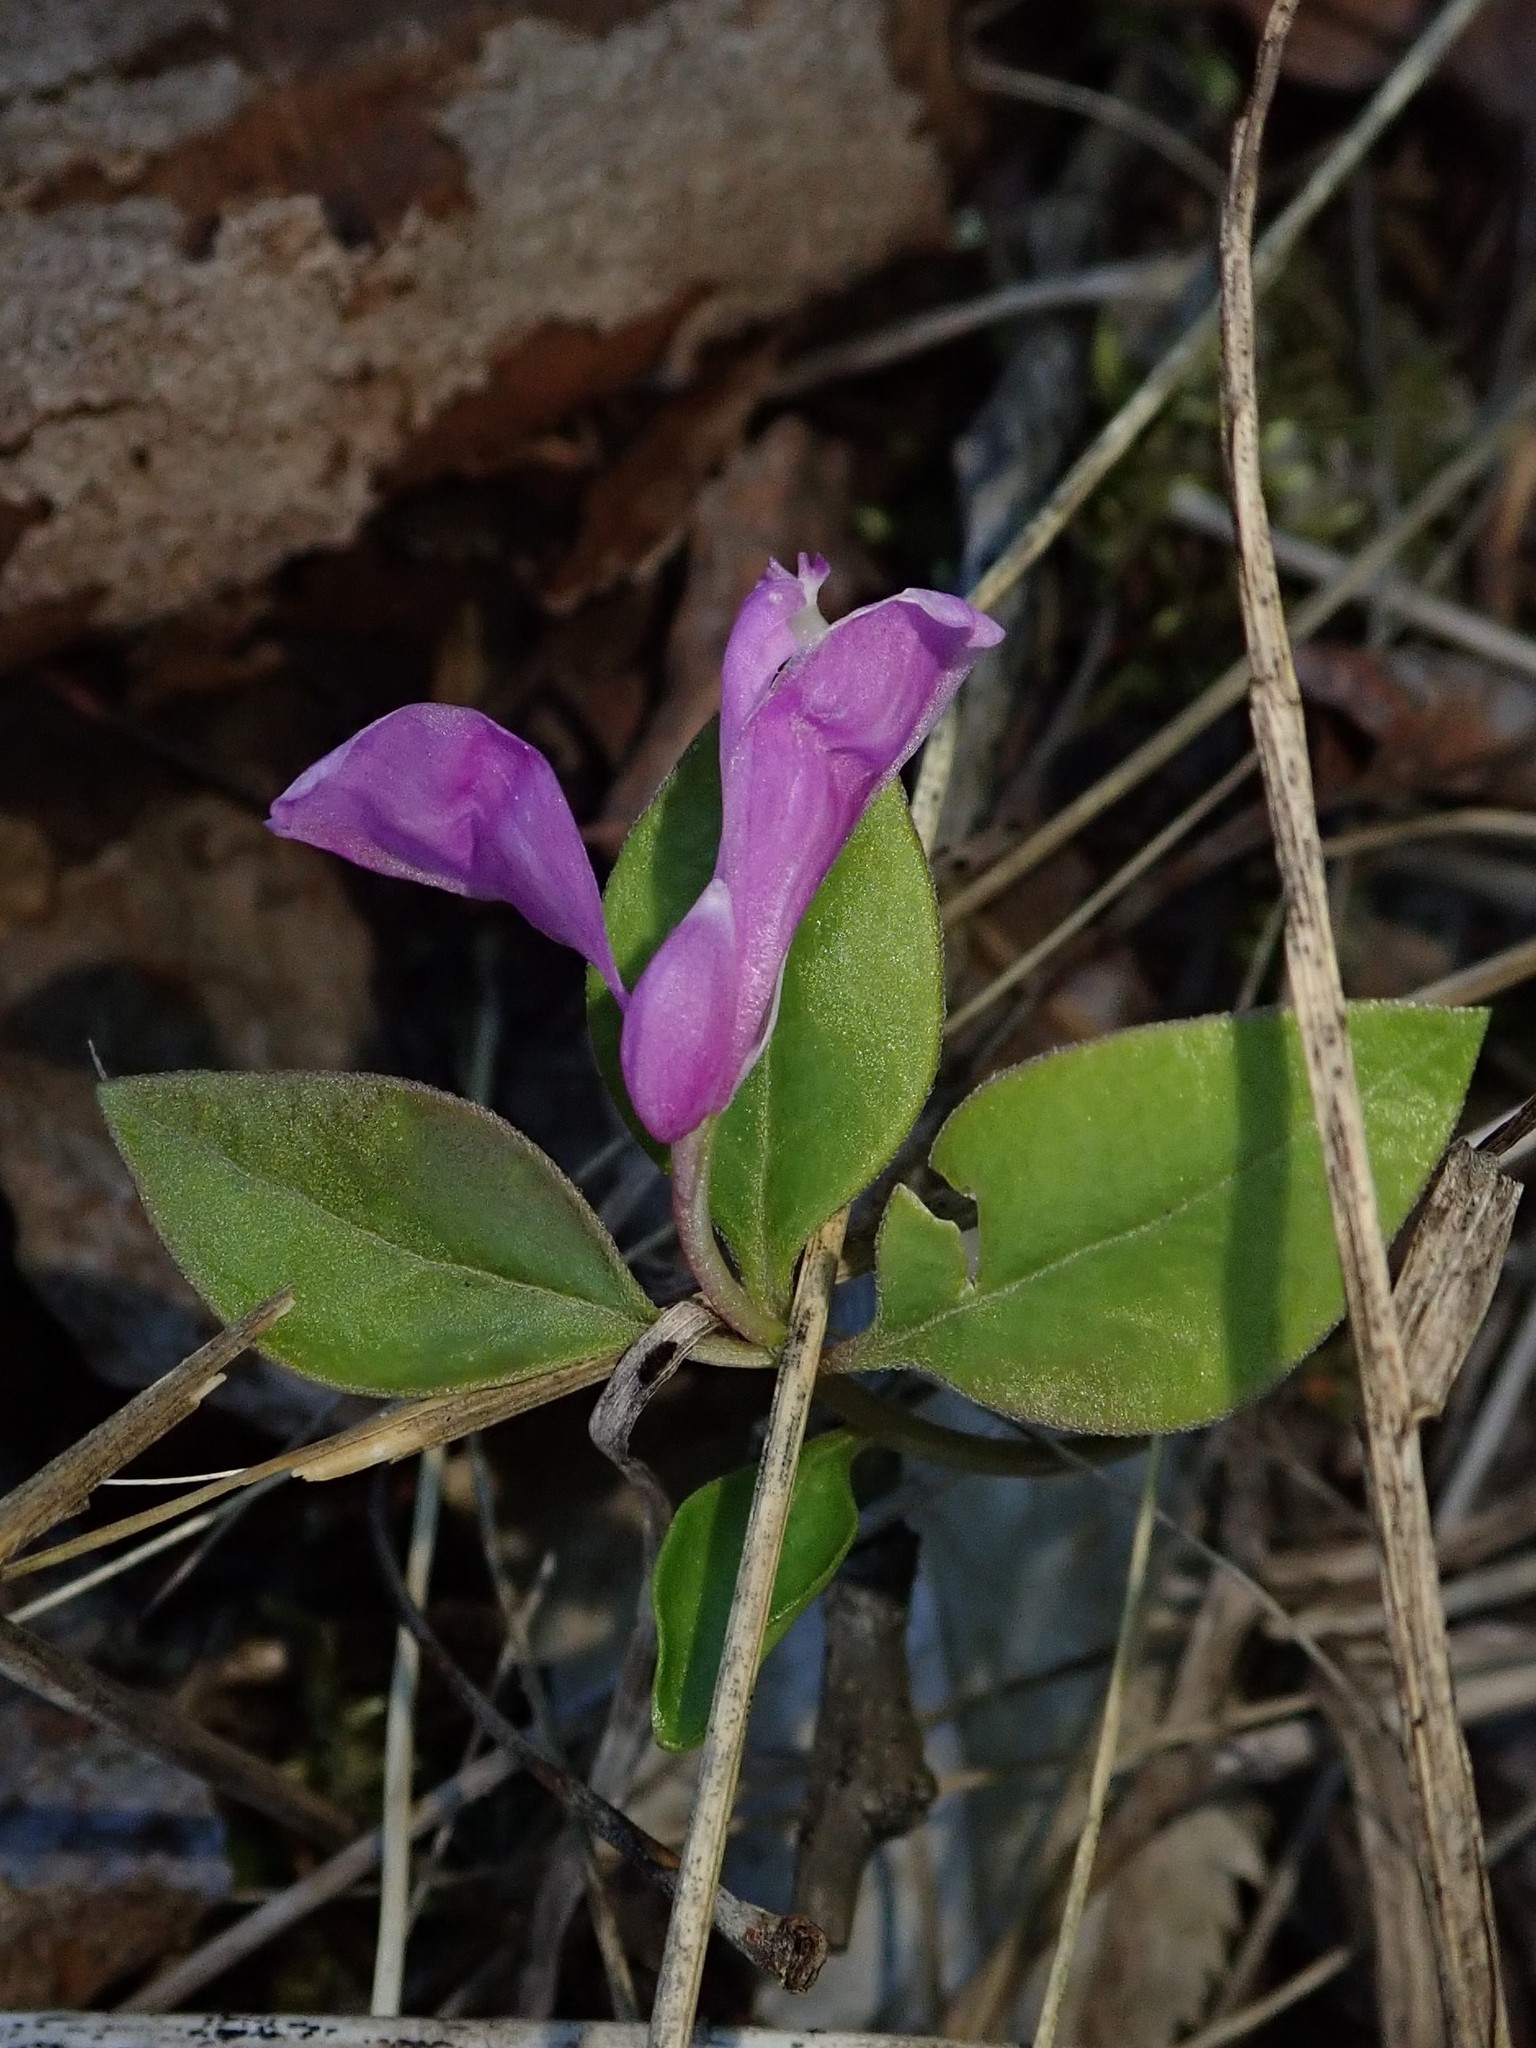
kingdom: Plantae
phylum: Tracheophyta
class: Magnoliopsida
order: Fabales
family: Polygalaceae
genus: Polygaloides
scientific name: Polygaloides paucifolia
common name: Bird-on-the-wing
